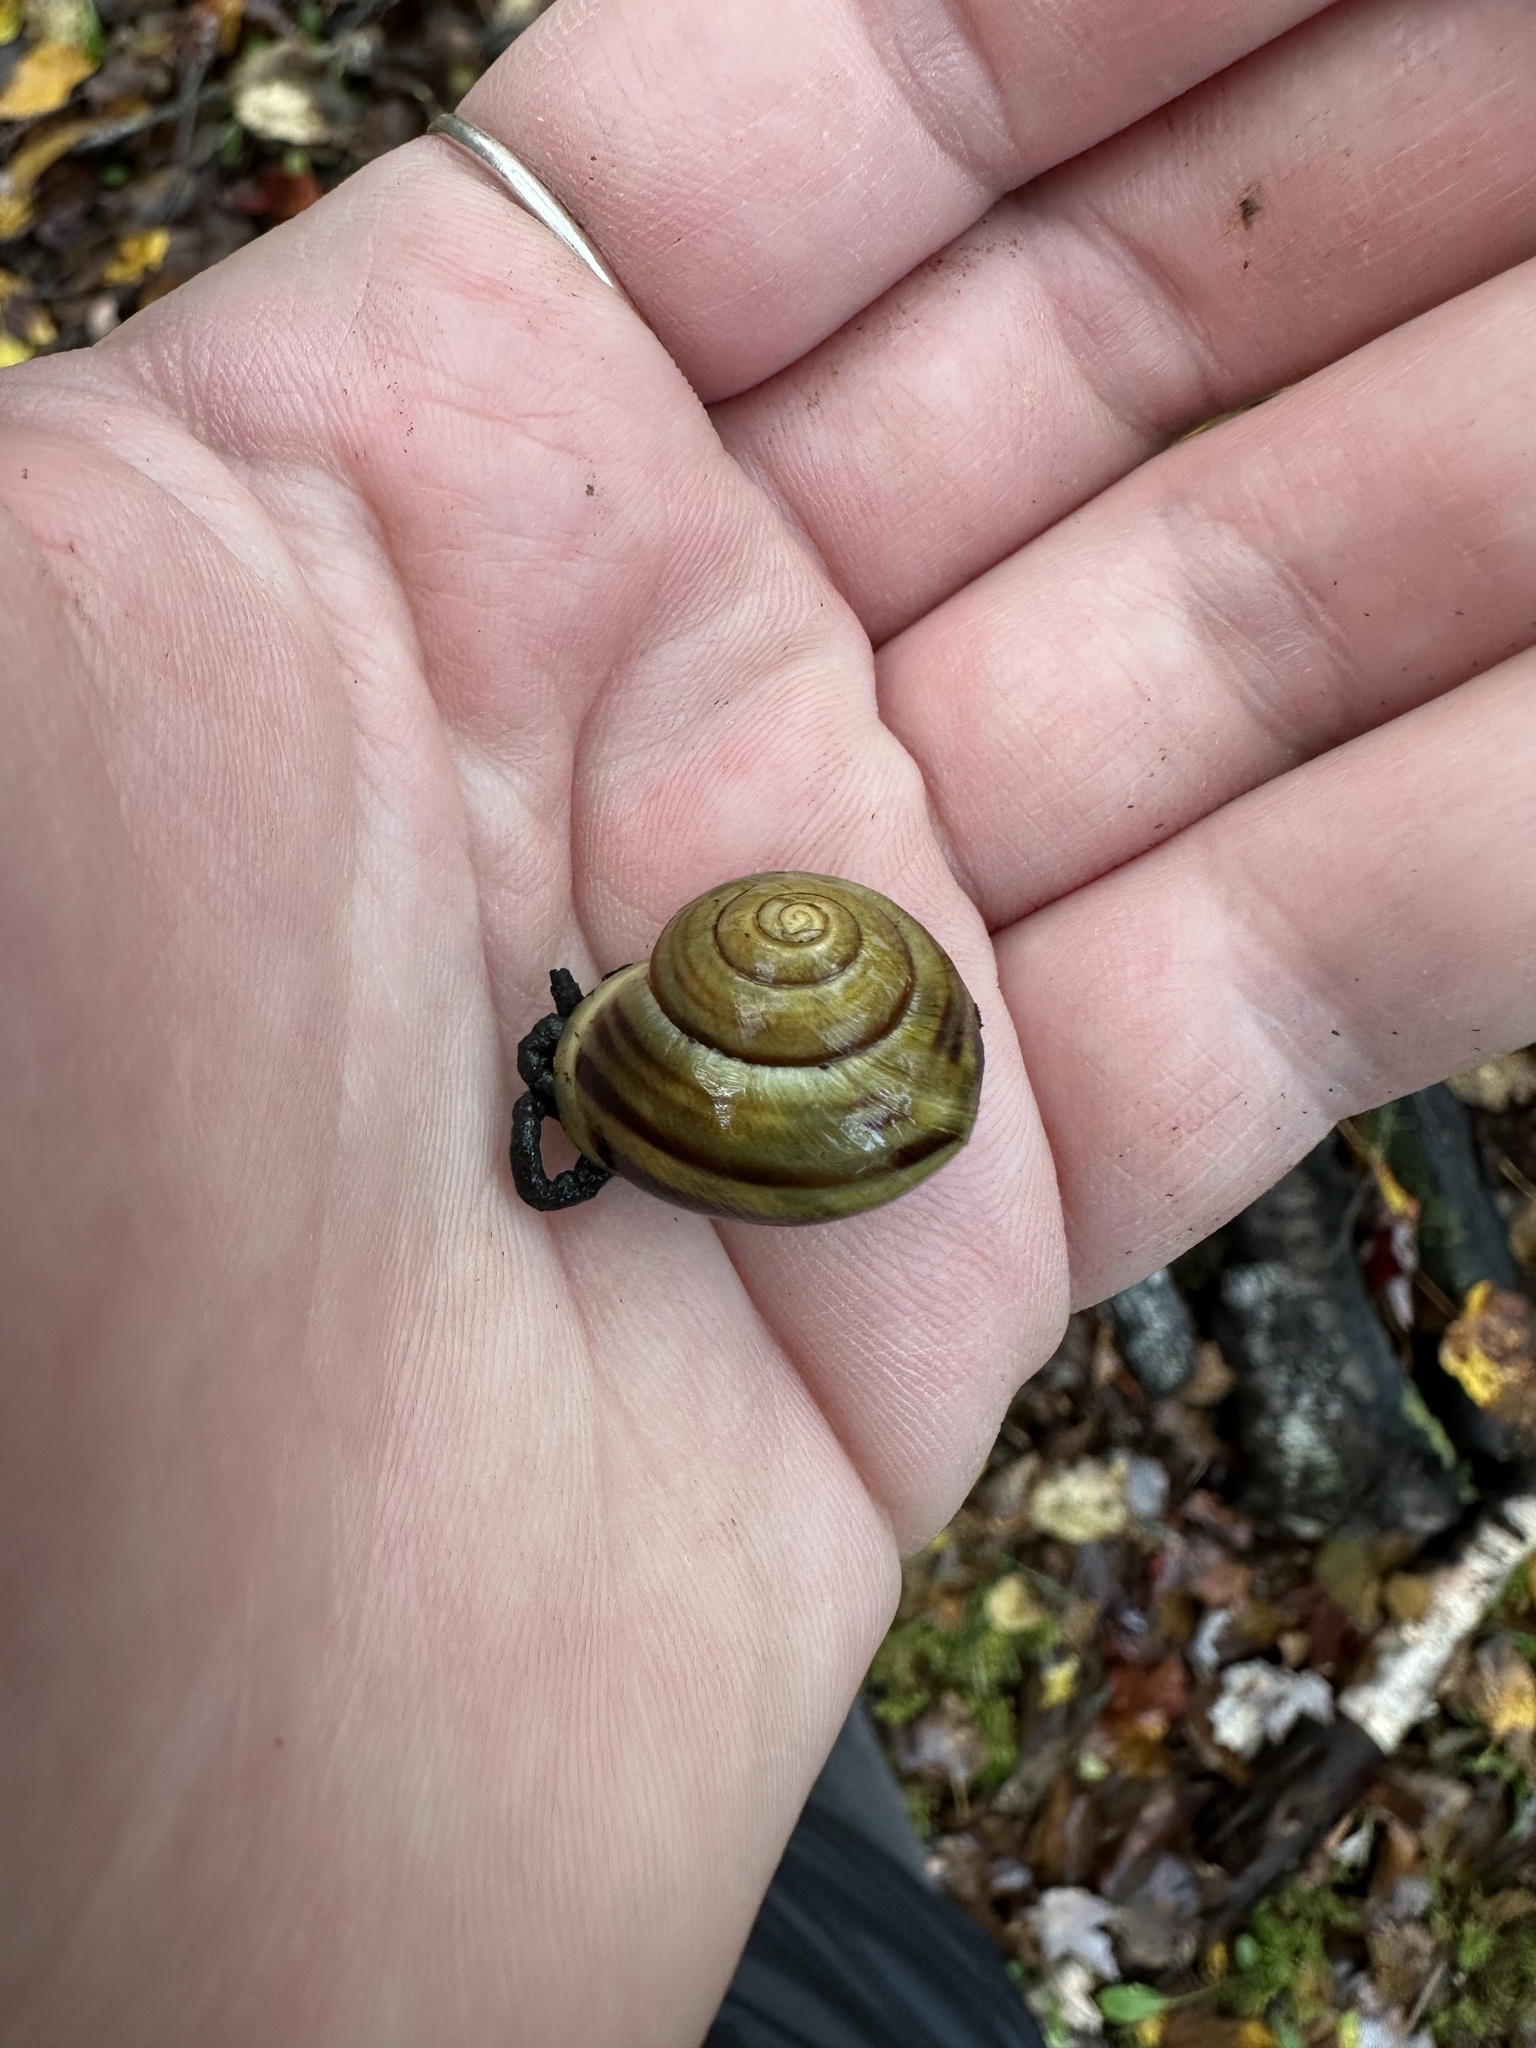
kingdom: Animalia
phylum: Mollusca
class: Gastropoda
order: Stylommatophora
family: Helicidae
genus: Cepaea
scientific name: Cepaea hortensis
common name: White-lip gardensnail
